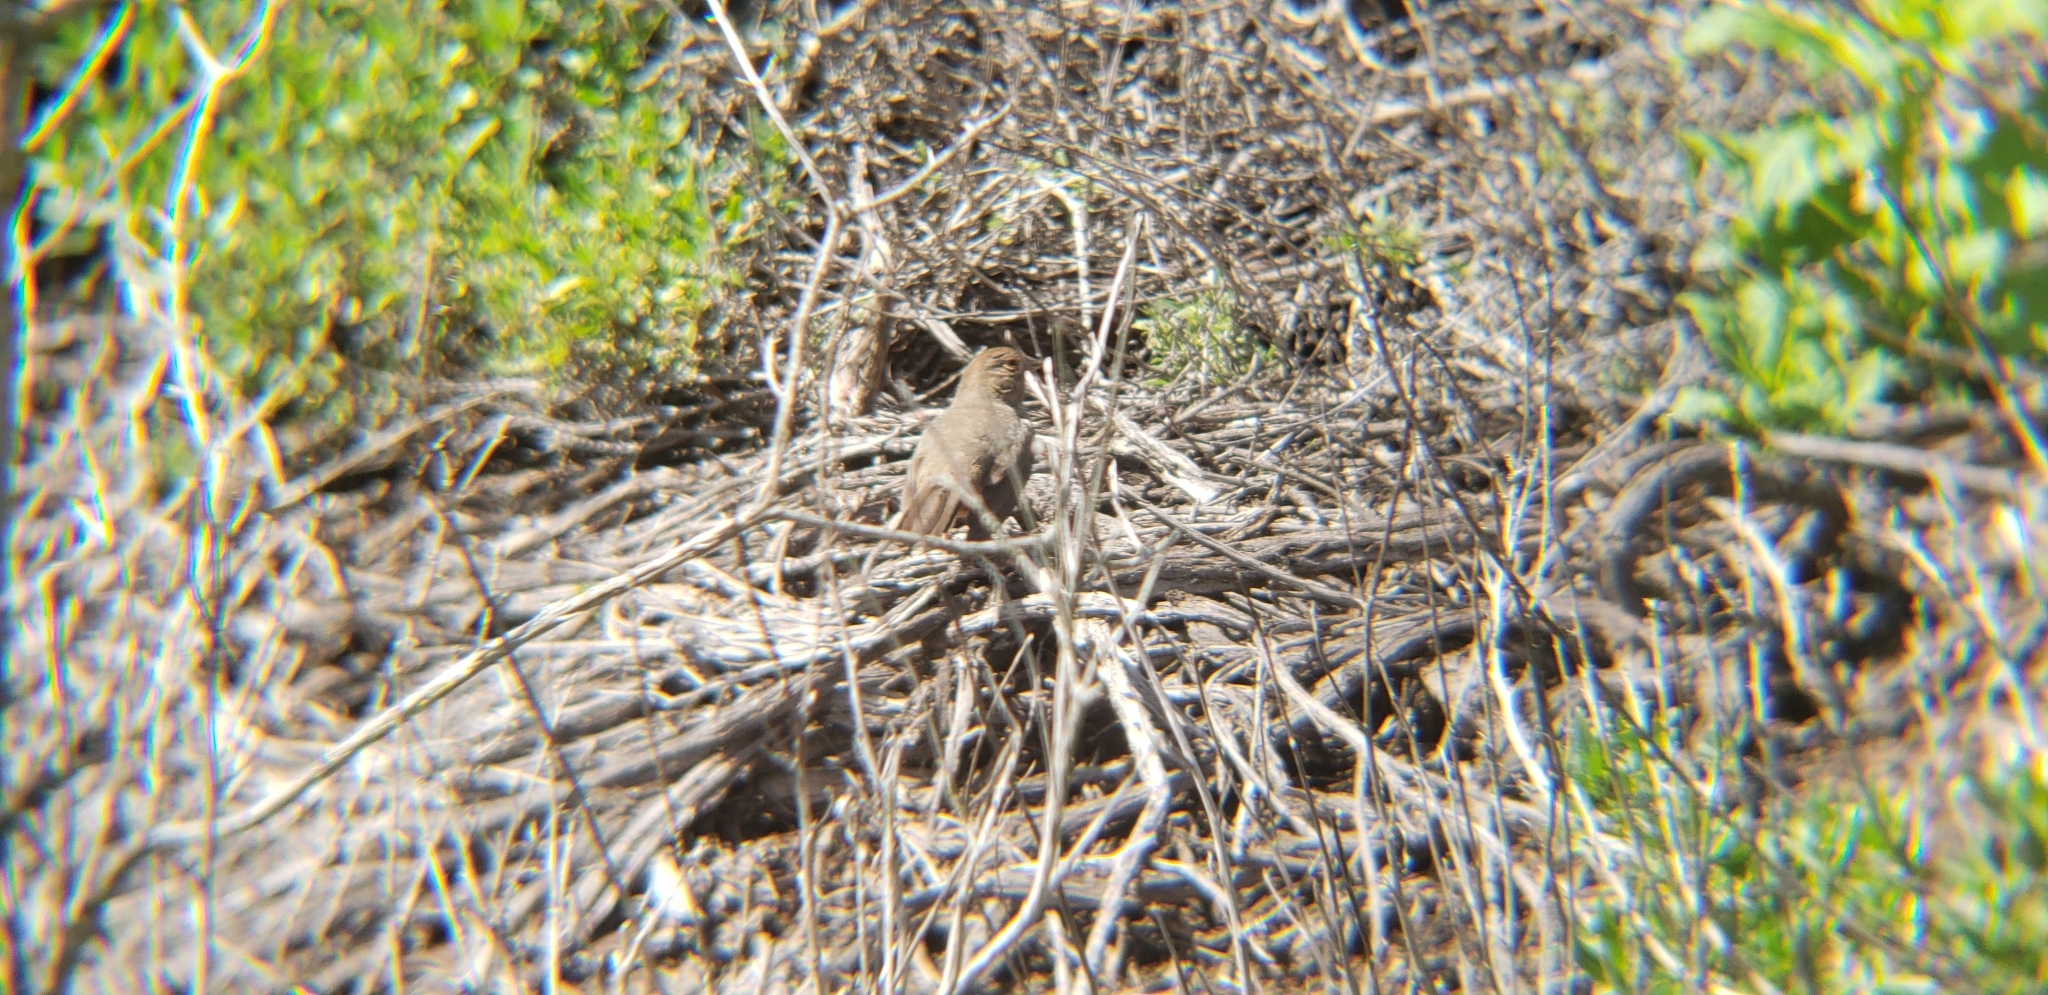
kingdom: Animalia
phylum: Chordata
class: Aves
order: Passeriformes
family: Passerellidae
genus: Melozone
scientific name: Melozone crissalis
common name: California towhee
